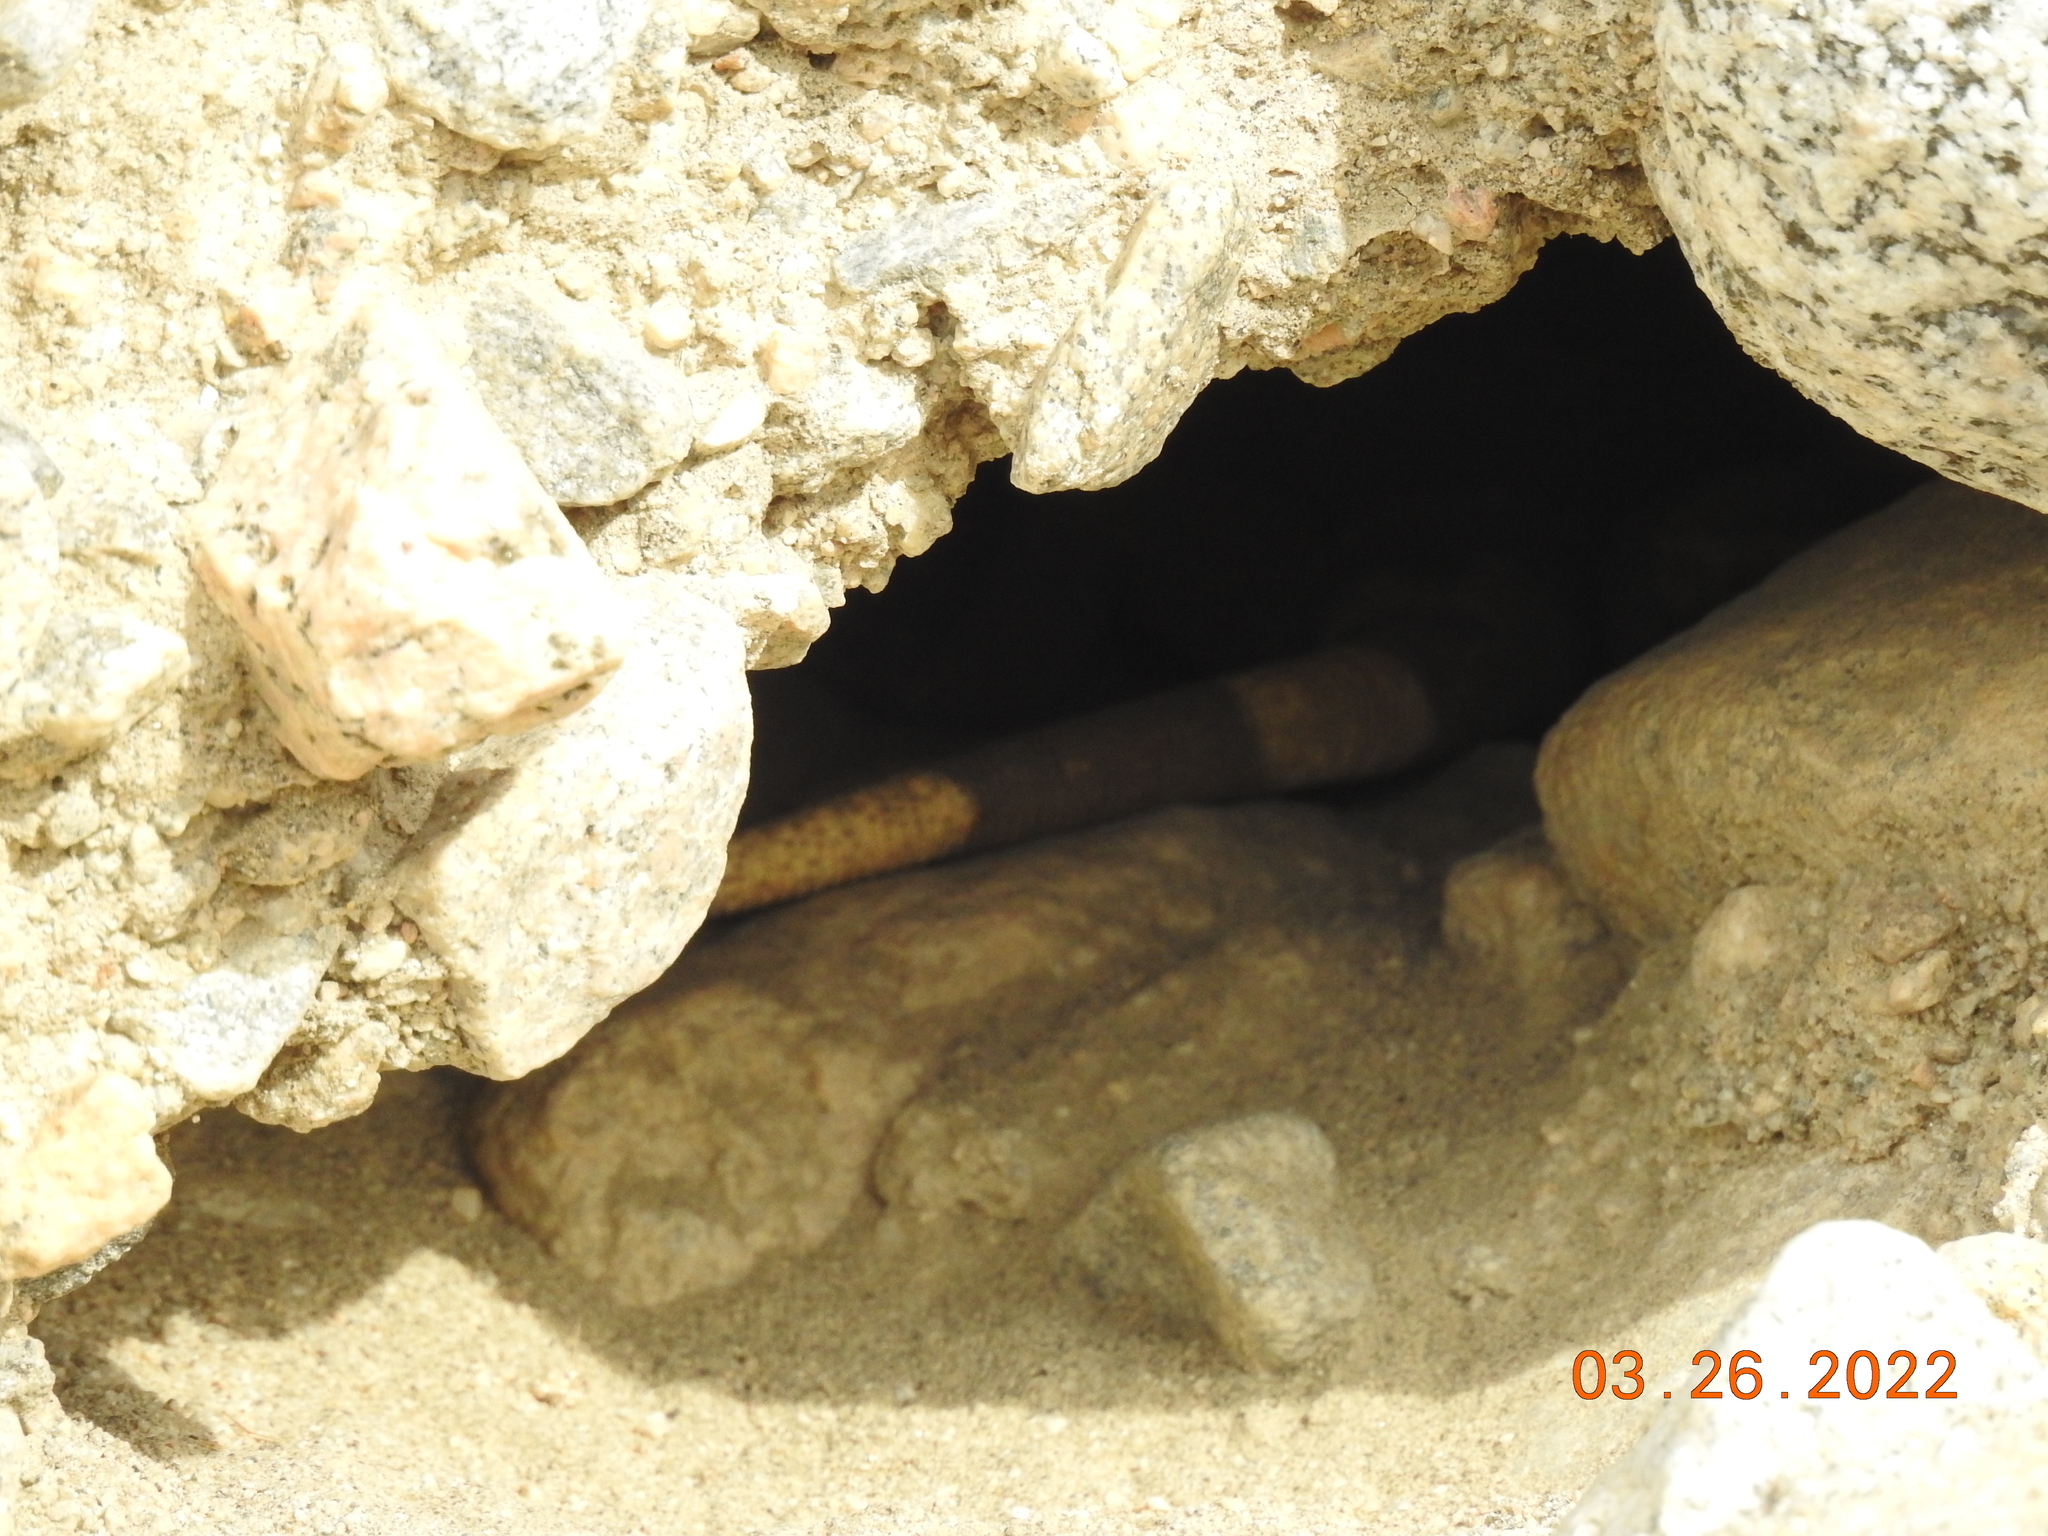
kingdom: Animalia
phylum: Chordata
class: Squamata
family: Iguanidae
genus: Sauromalus
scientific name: Sauromalus ater
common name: Northern chuckwalla
